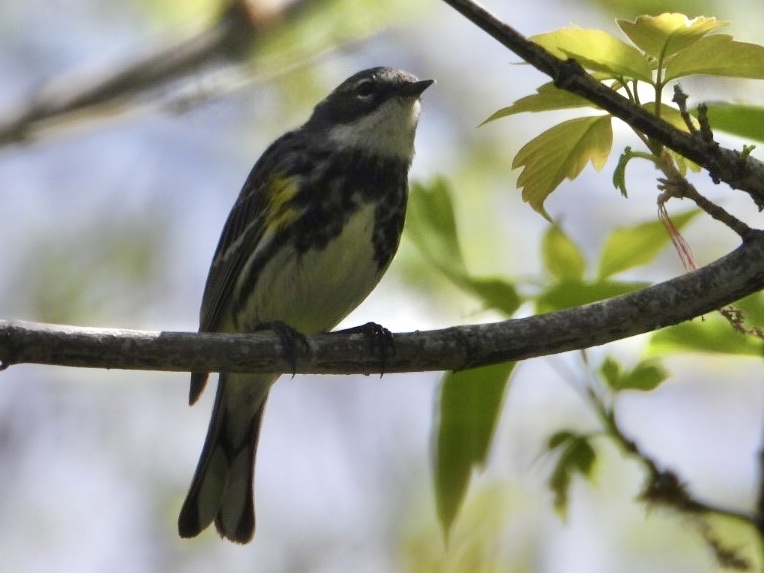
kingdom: Animalia
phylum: Chordata
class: Aves
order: Passeriformes
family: Parulidae
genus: Setophaga
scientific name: Setophaga coronata
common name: Myrtle warbler
